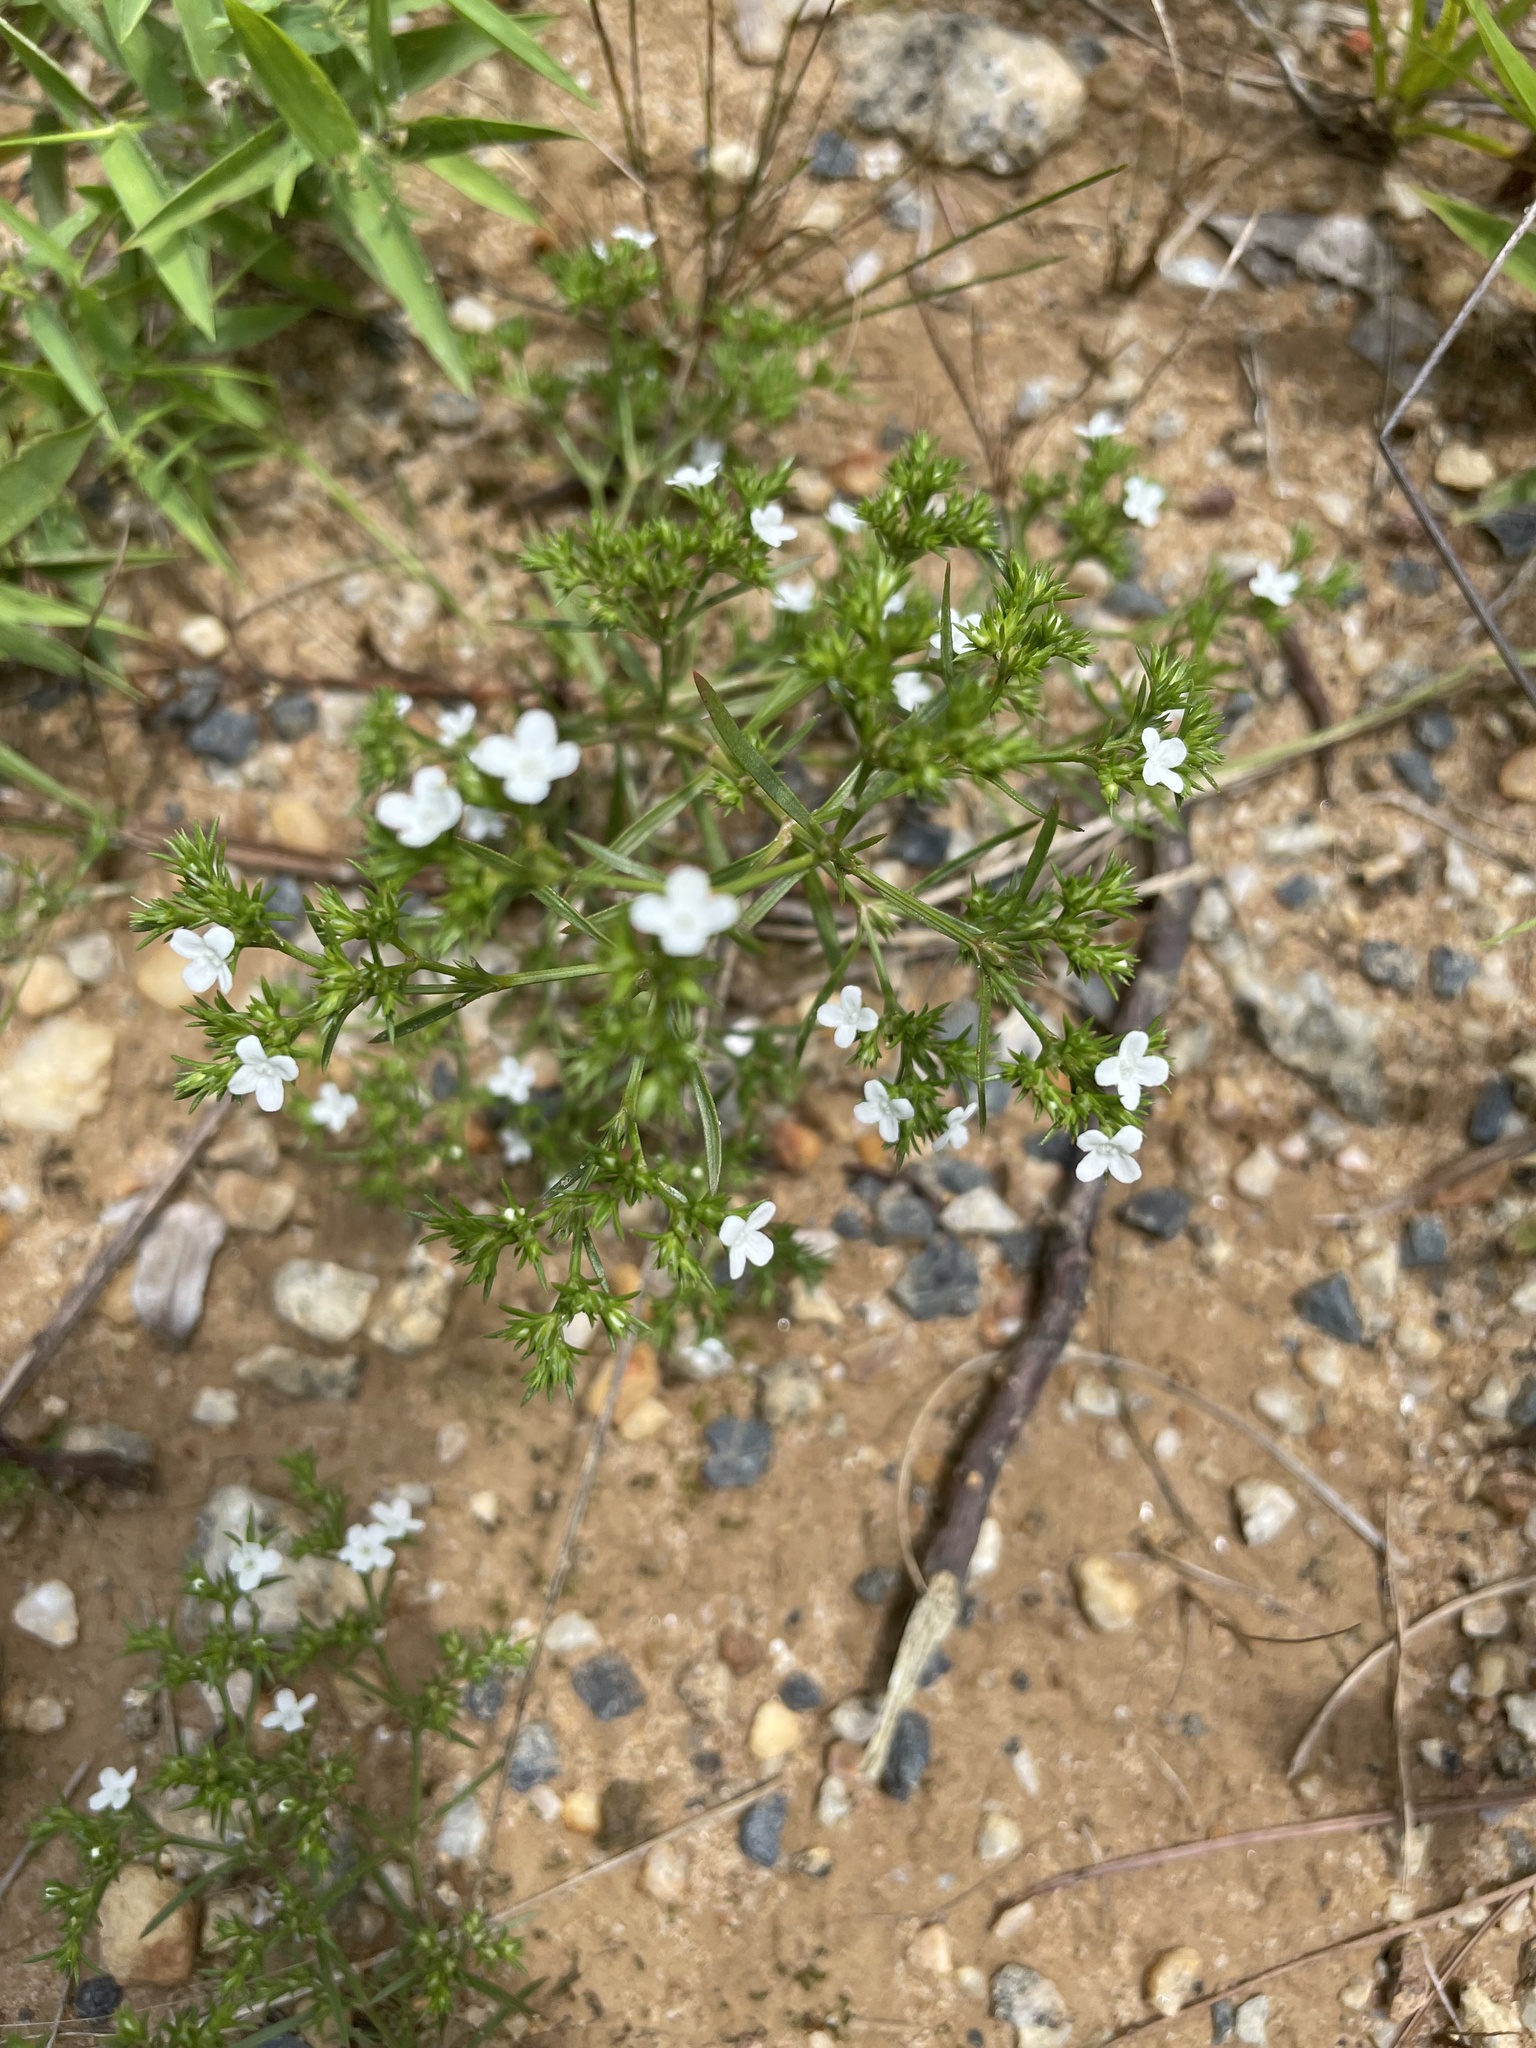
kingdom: Plantae
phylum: Tracheophyta
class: Magnoliopsida
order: Lamiales
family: Tetrachondraceae
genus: Polypremum
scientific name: Polypremum procumbens
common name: Juniper-leaf
